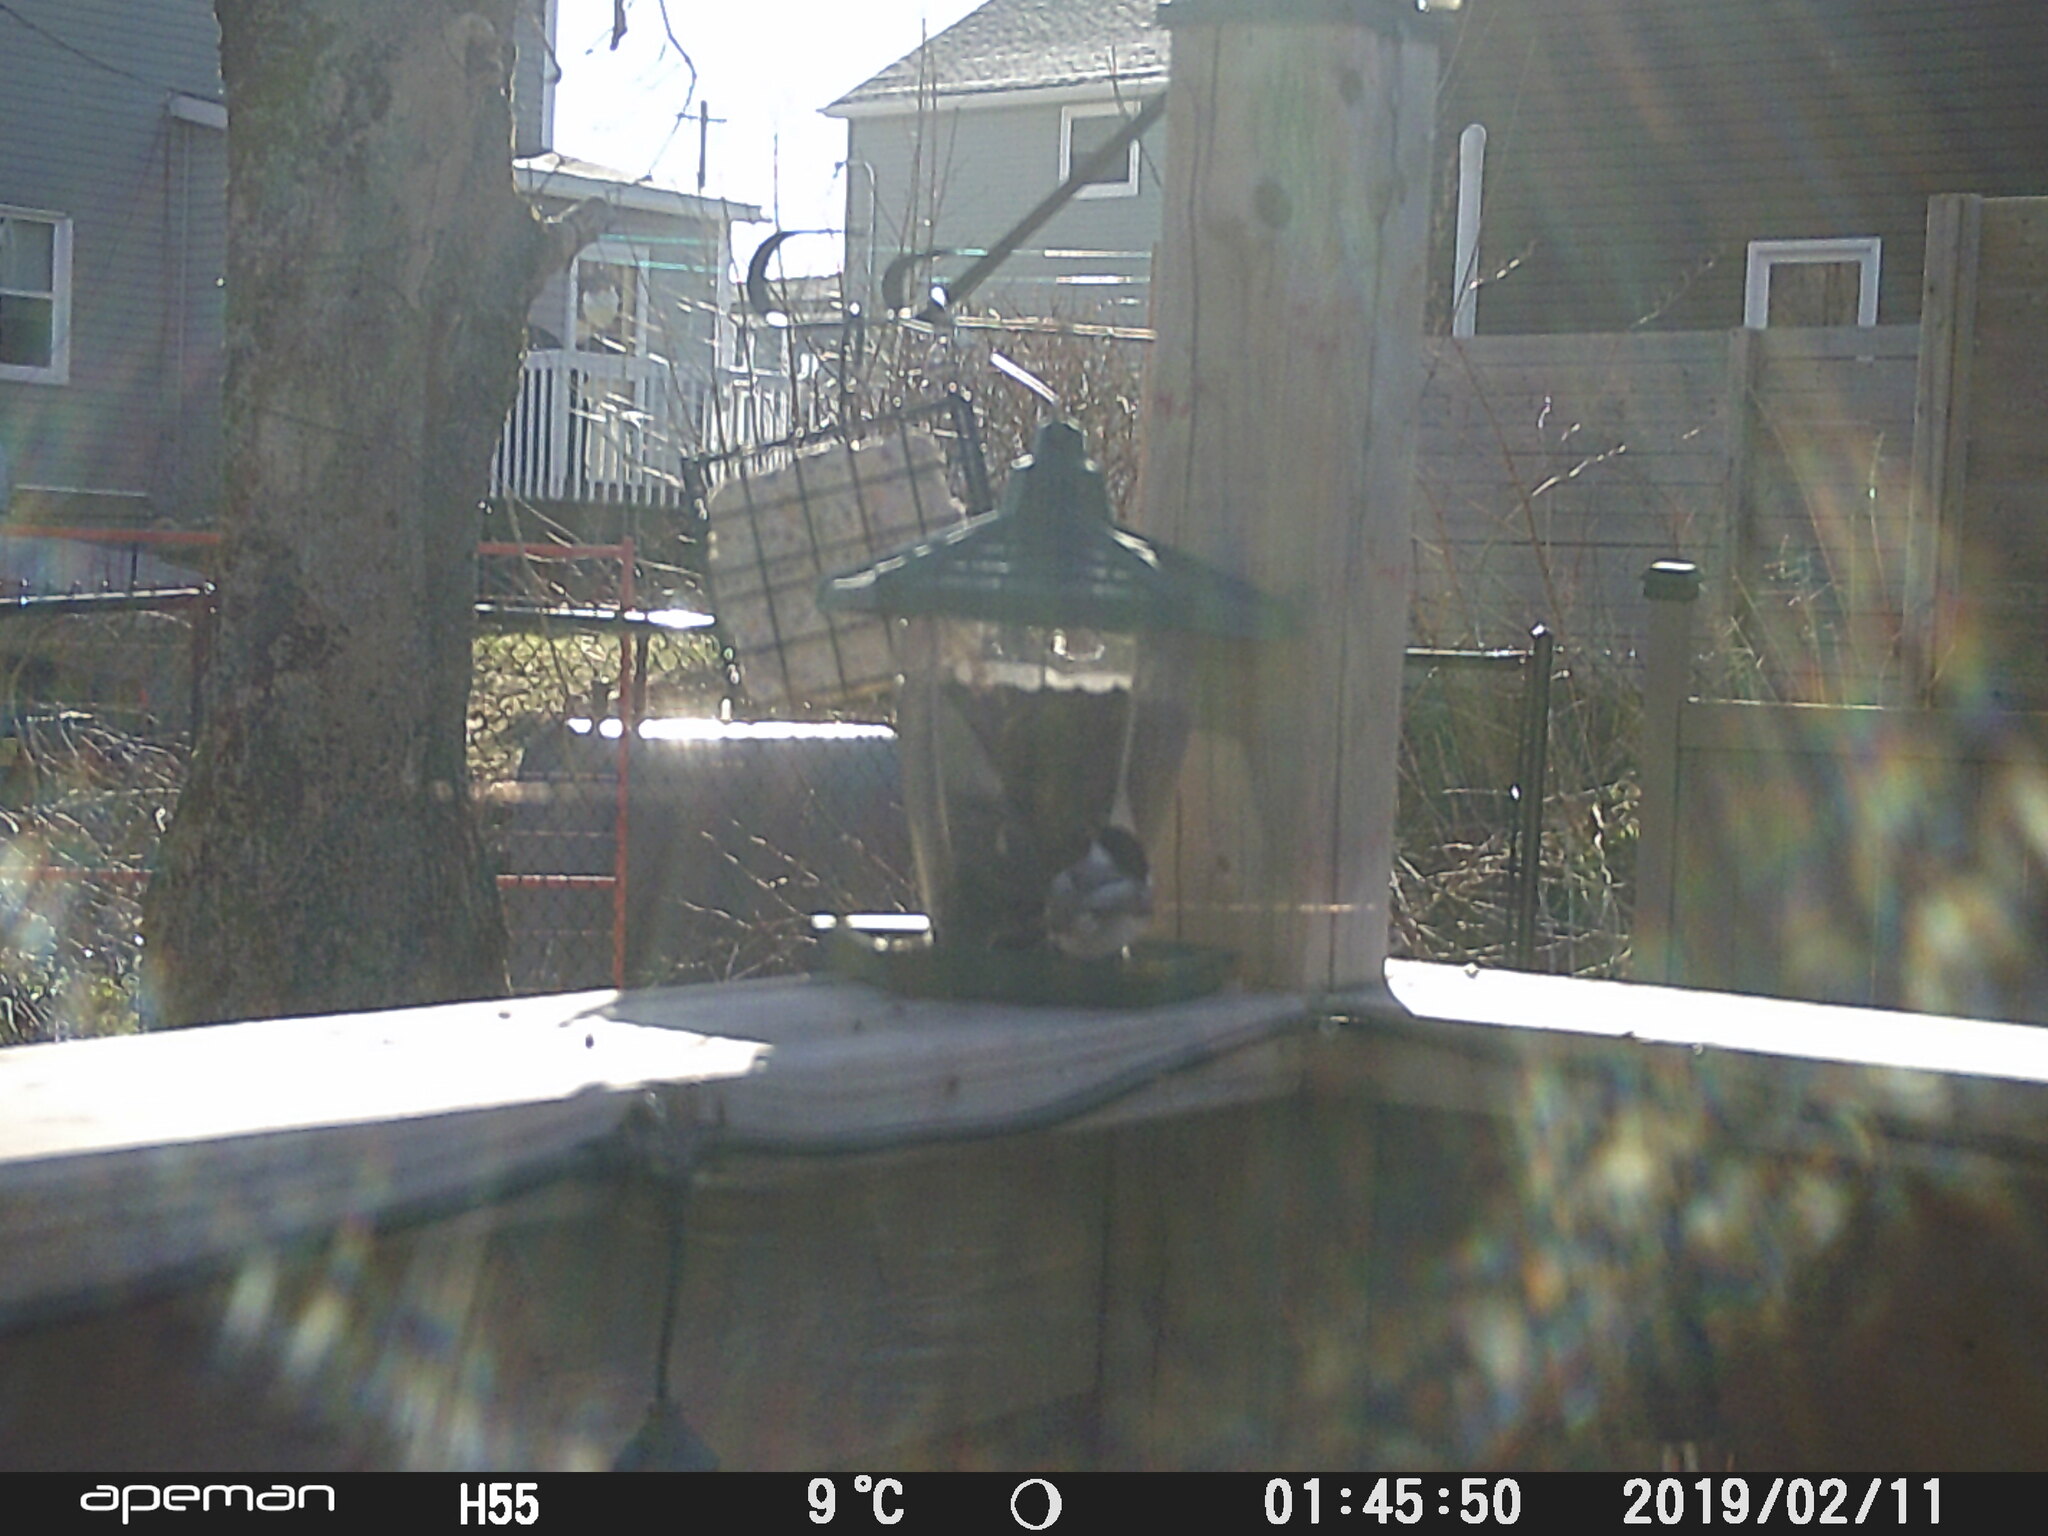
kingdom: Animalia
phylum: Chordata
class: Aves
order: Passeriformes
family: Paridae
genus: Poecile
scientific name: Poecile atricapillus
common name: Black-capped chickadee
